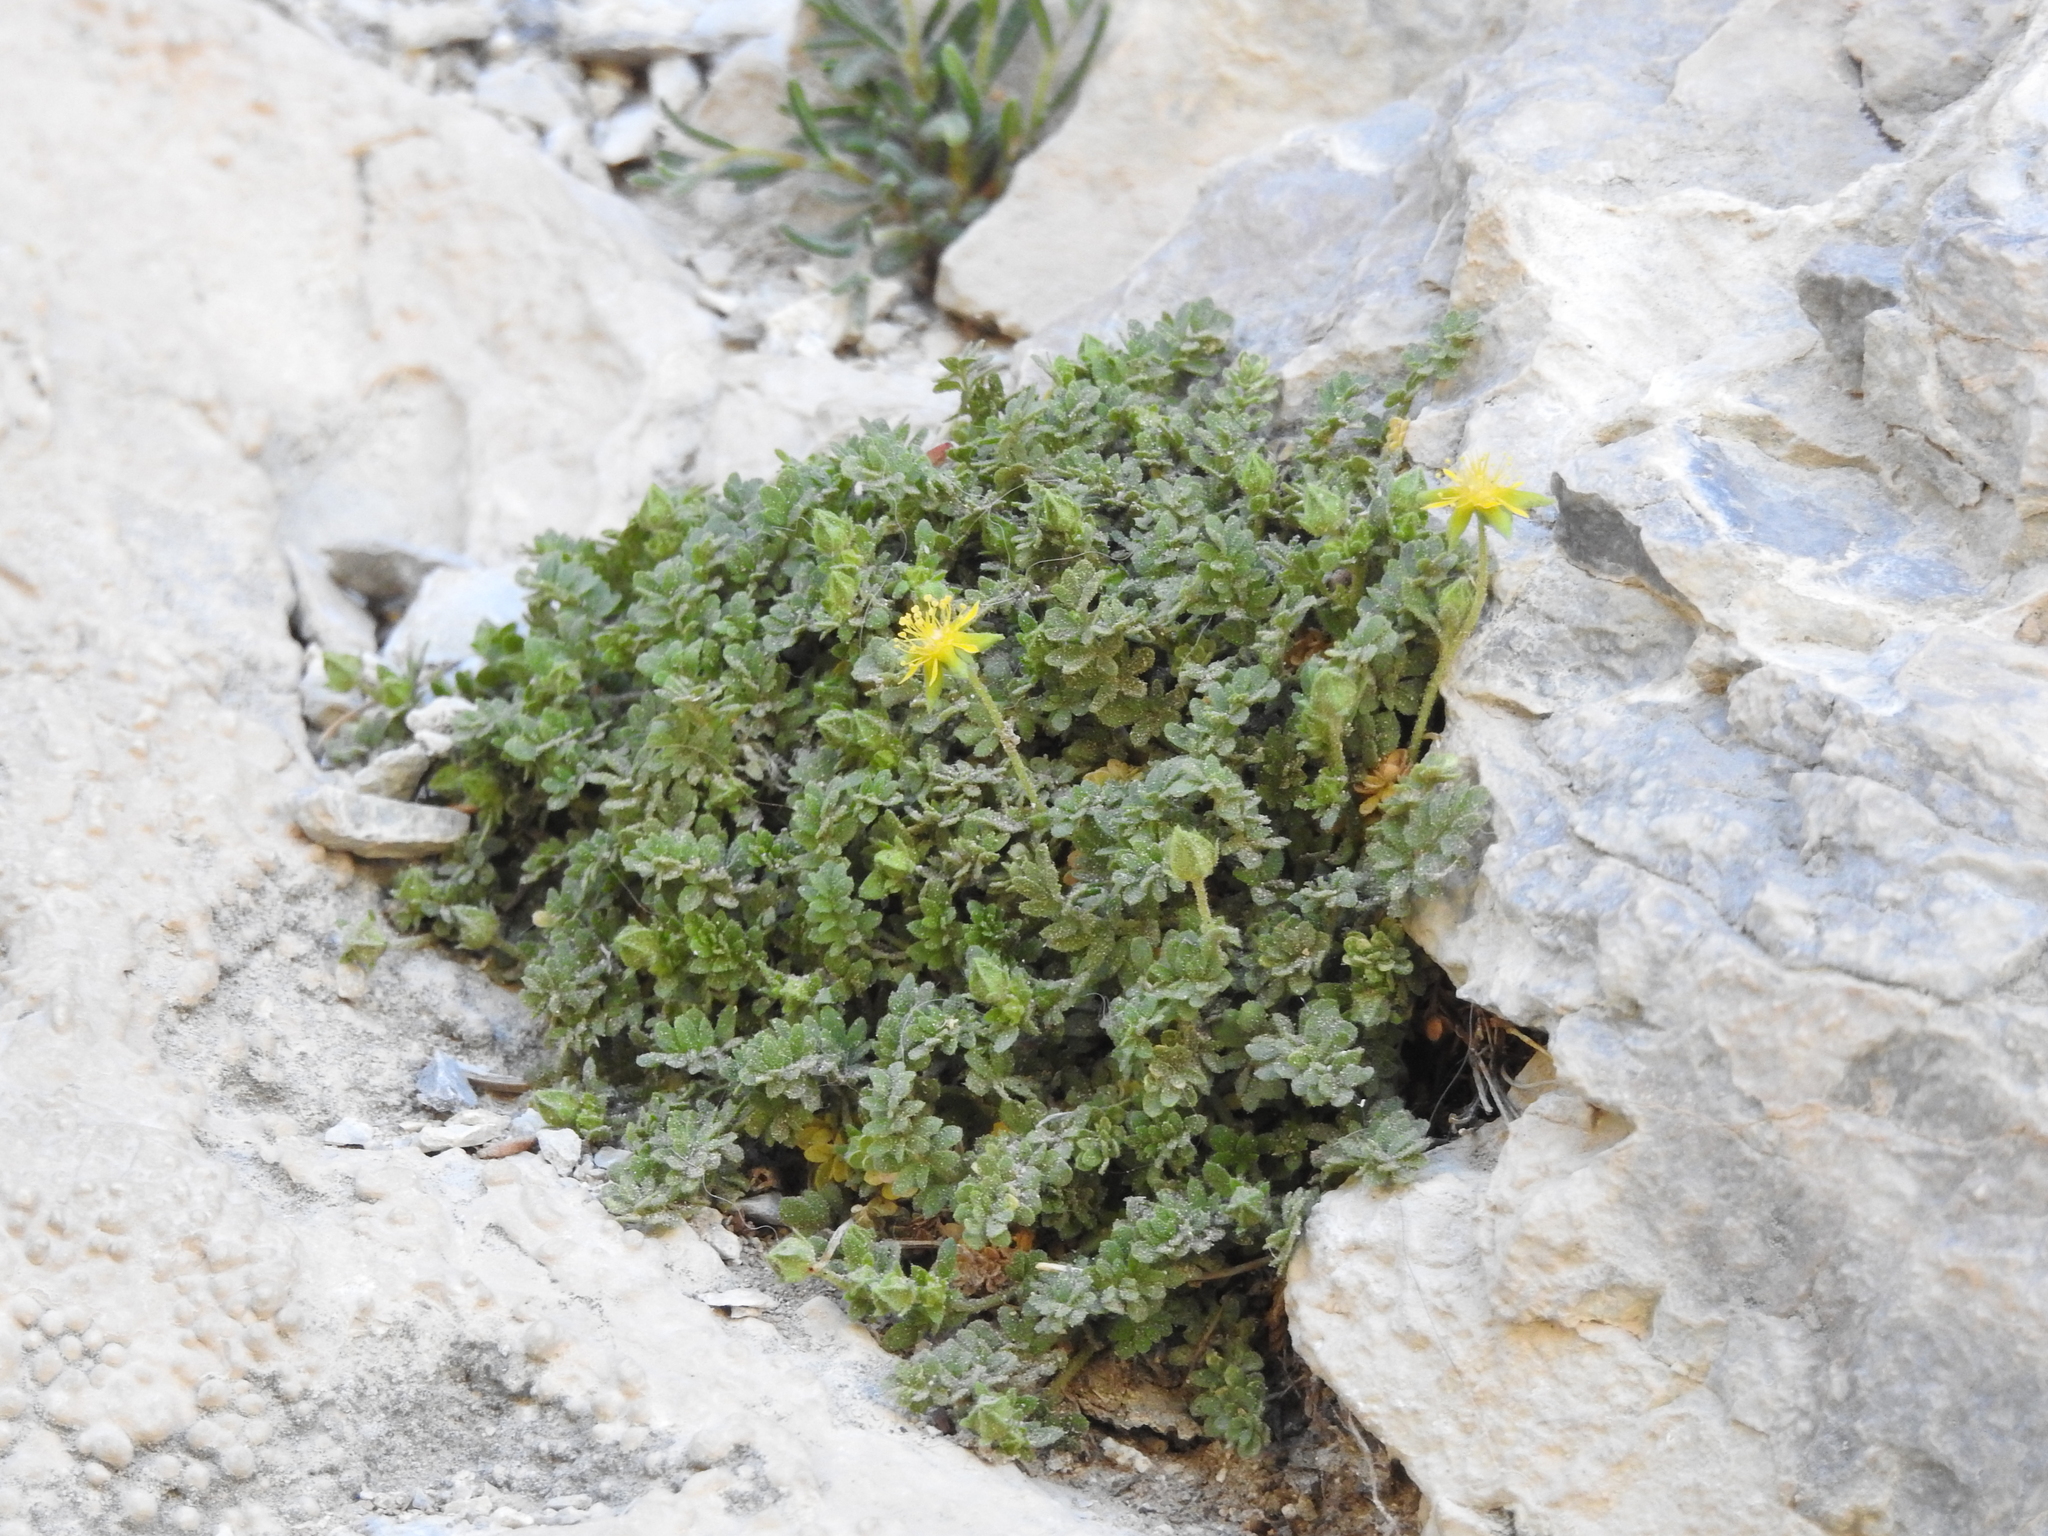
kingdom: Plantae
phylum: Tracheophyta
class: Magnoliopsida
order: Rosales
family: Rosaceae
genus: Potentilla
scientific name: Potentilla jaegeri
